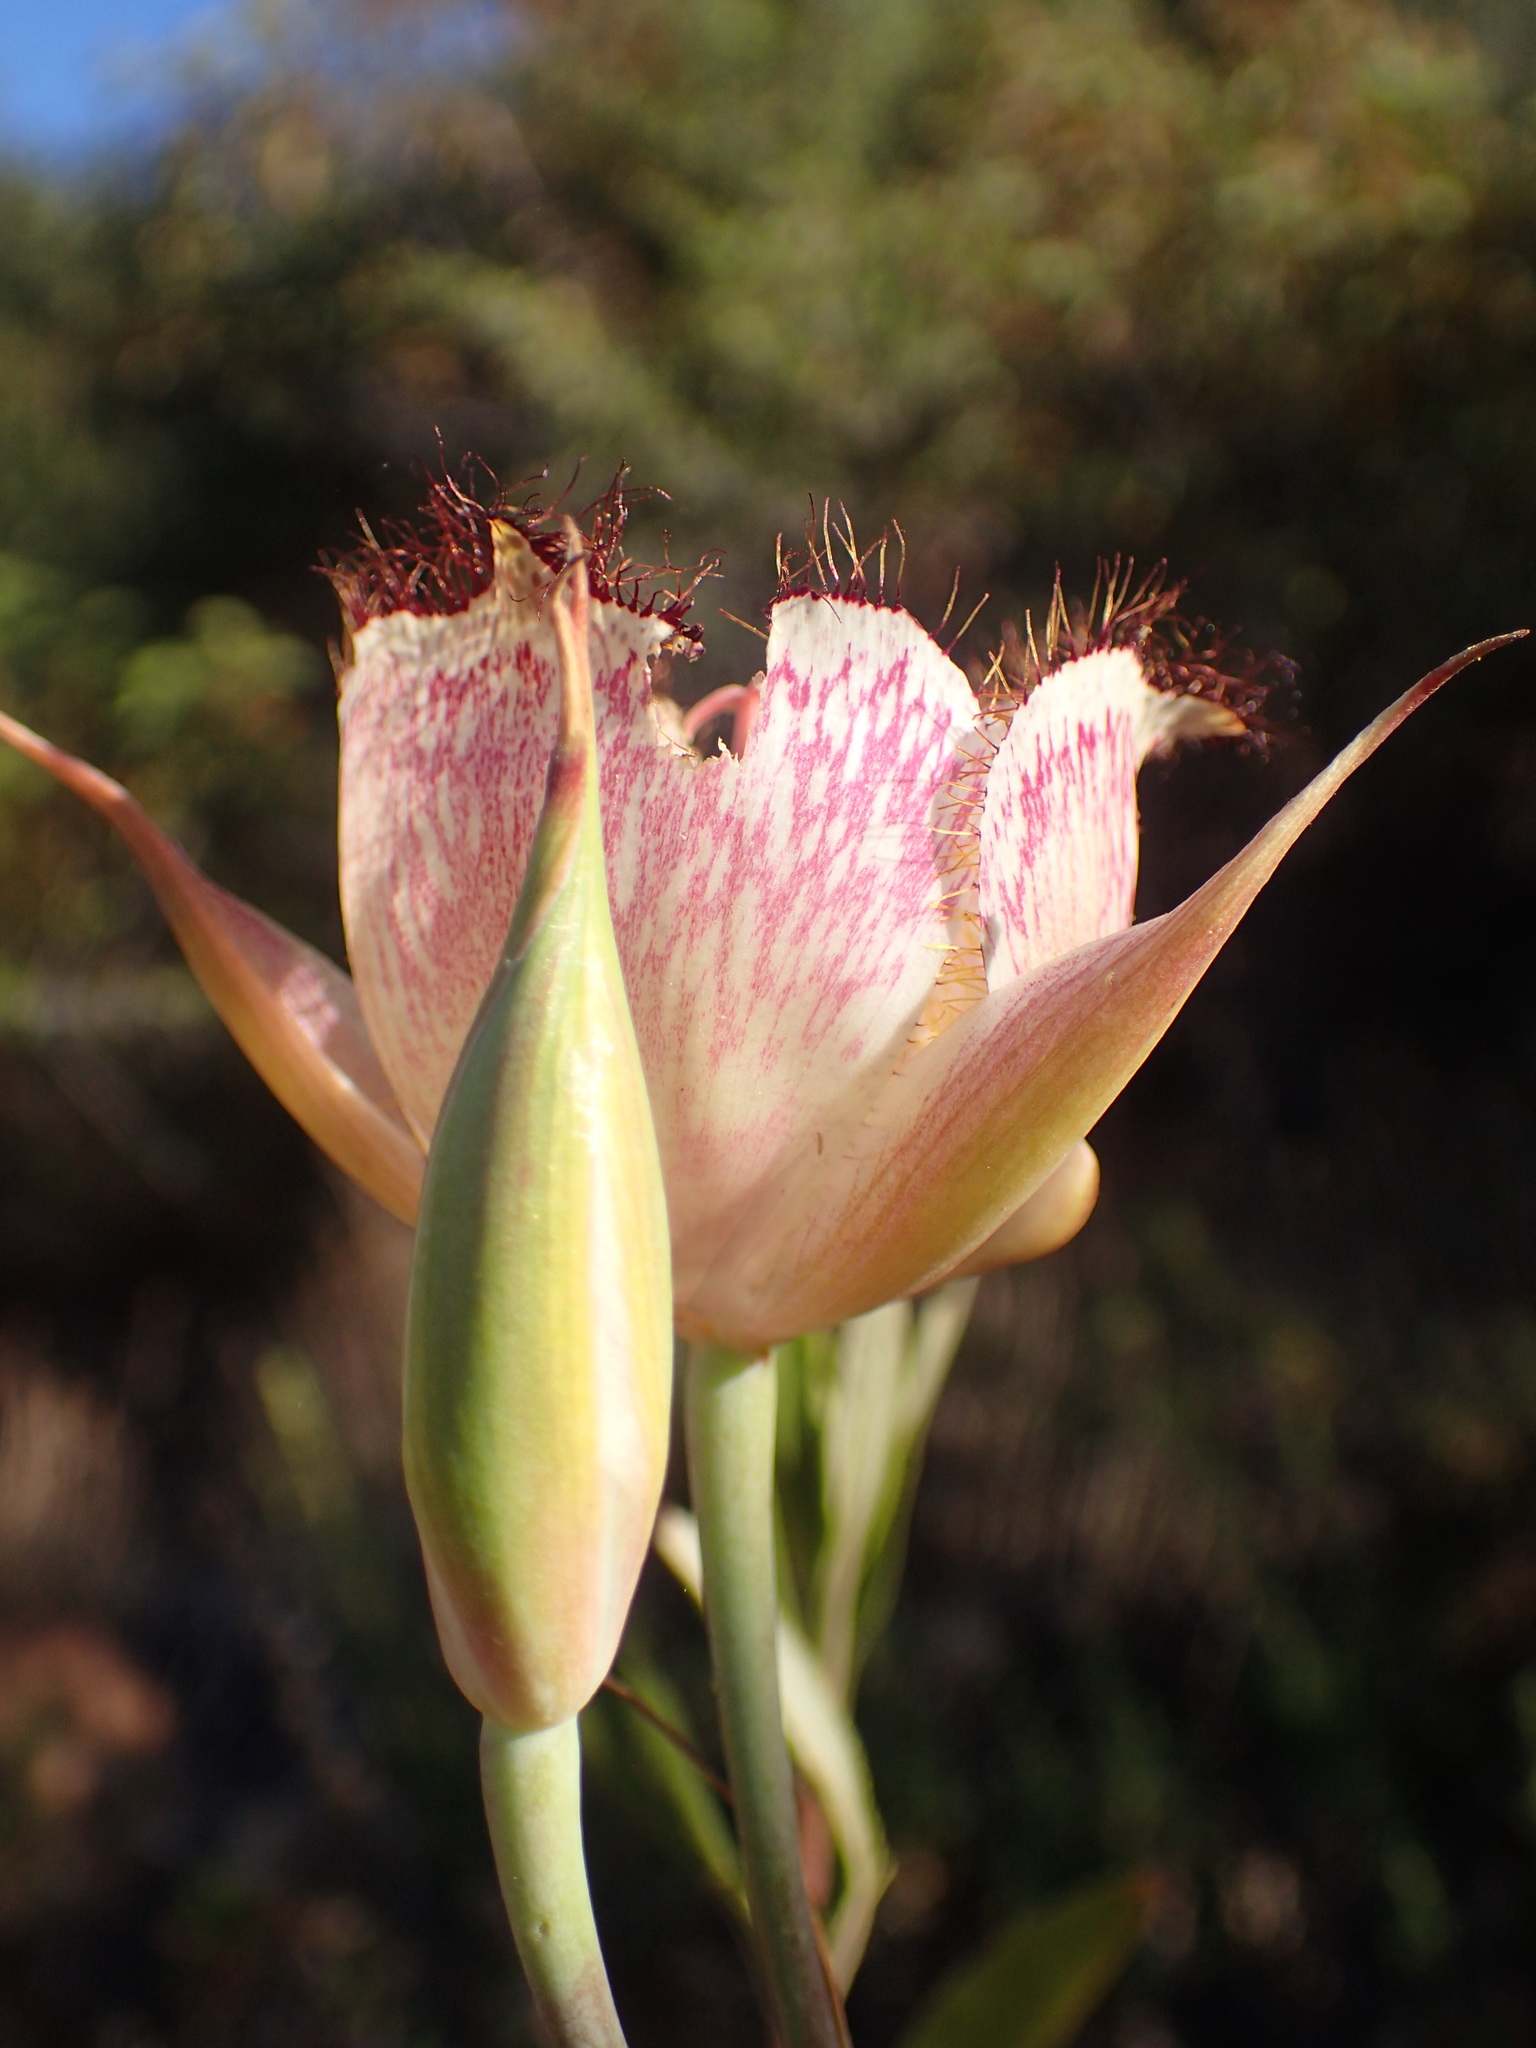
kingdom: Plantae
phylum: Tracheophyta
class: Liliopsida
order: Liliales
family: Liliaceae
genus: Calochortus
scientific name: Calochortus fimbriatus
